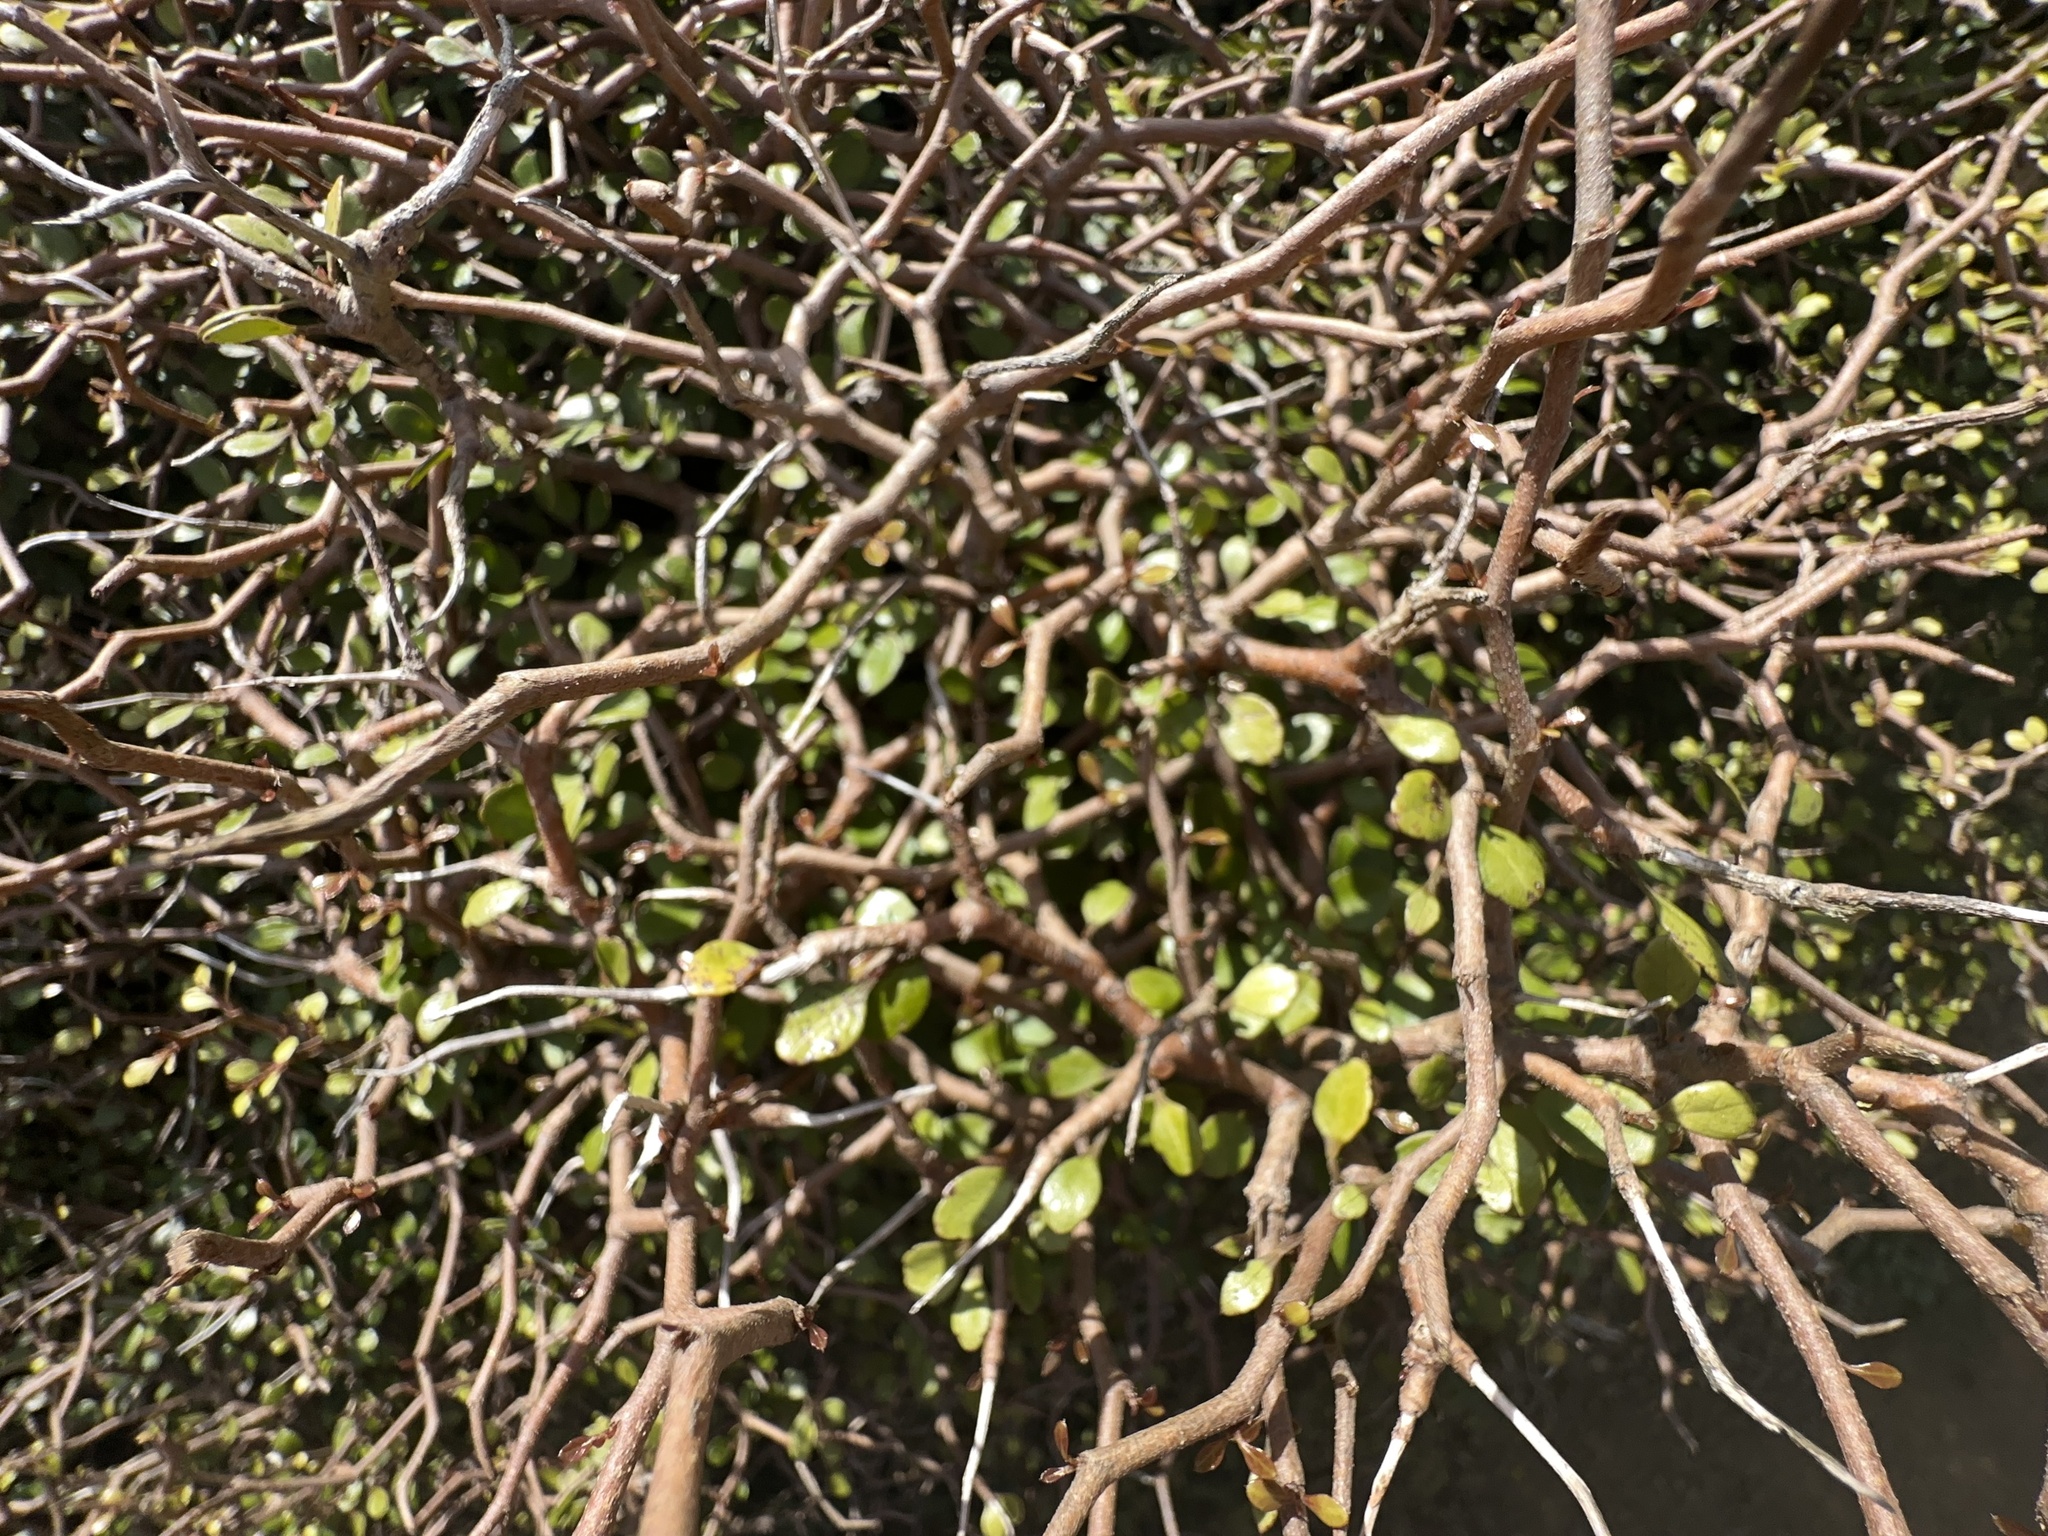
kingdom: Plantae
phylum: Tracheophyta
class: Magnoliopsida
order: Apiales
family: Araliaceae
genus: Raukaua
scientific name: Raukaua anomalus
